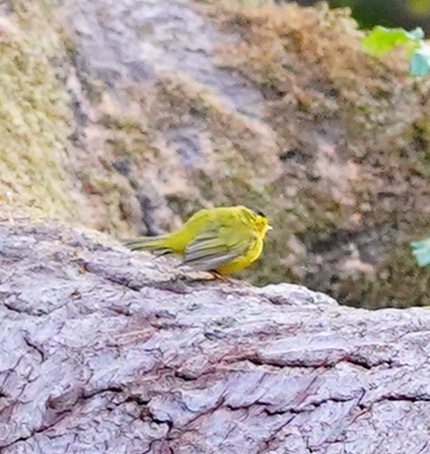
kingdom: Animalia
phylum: Chordata
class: Aves
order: Passeriformes
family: Parulidae
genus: Cardellina
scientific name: Cardellina pusilla
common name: Wilson's warbler
